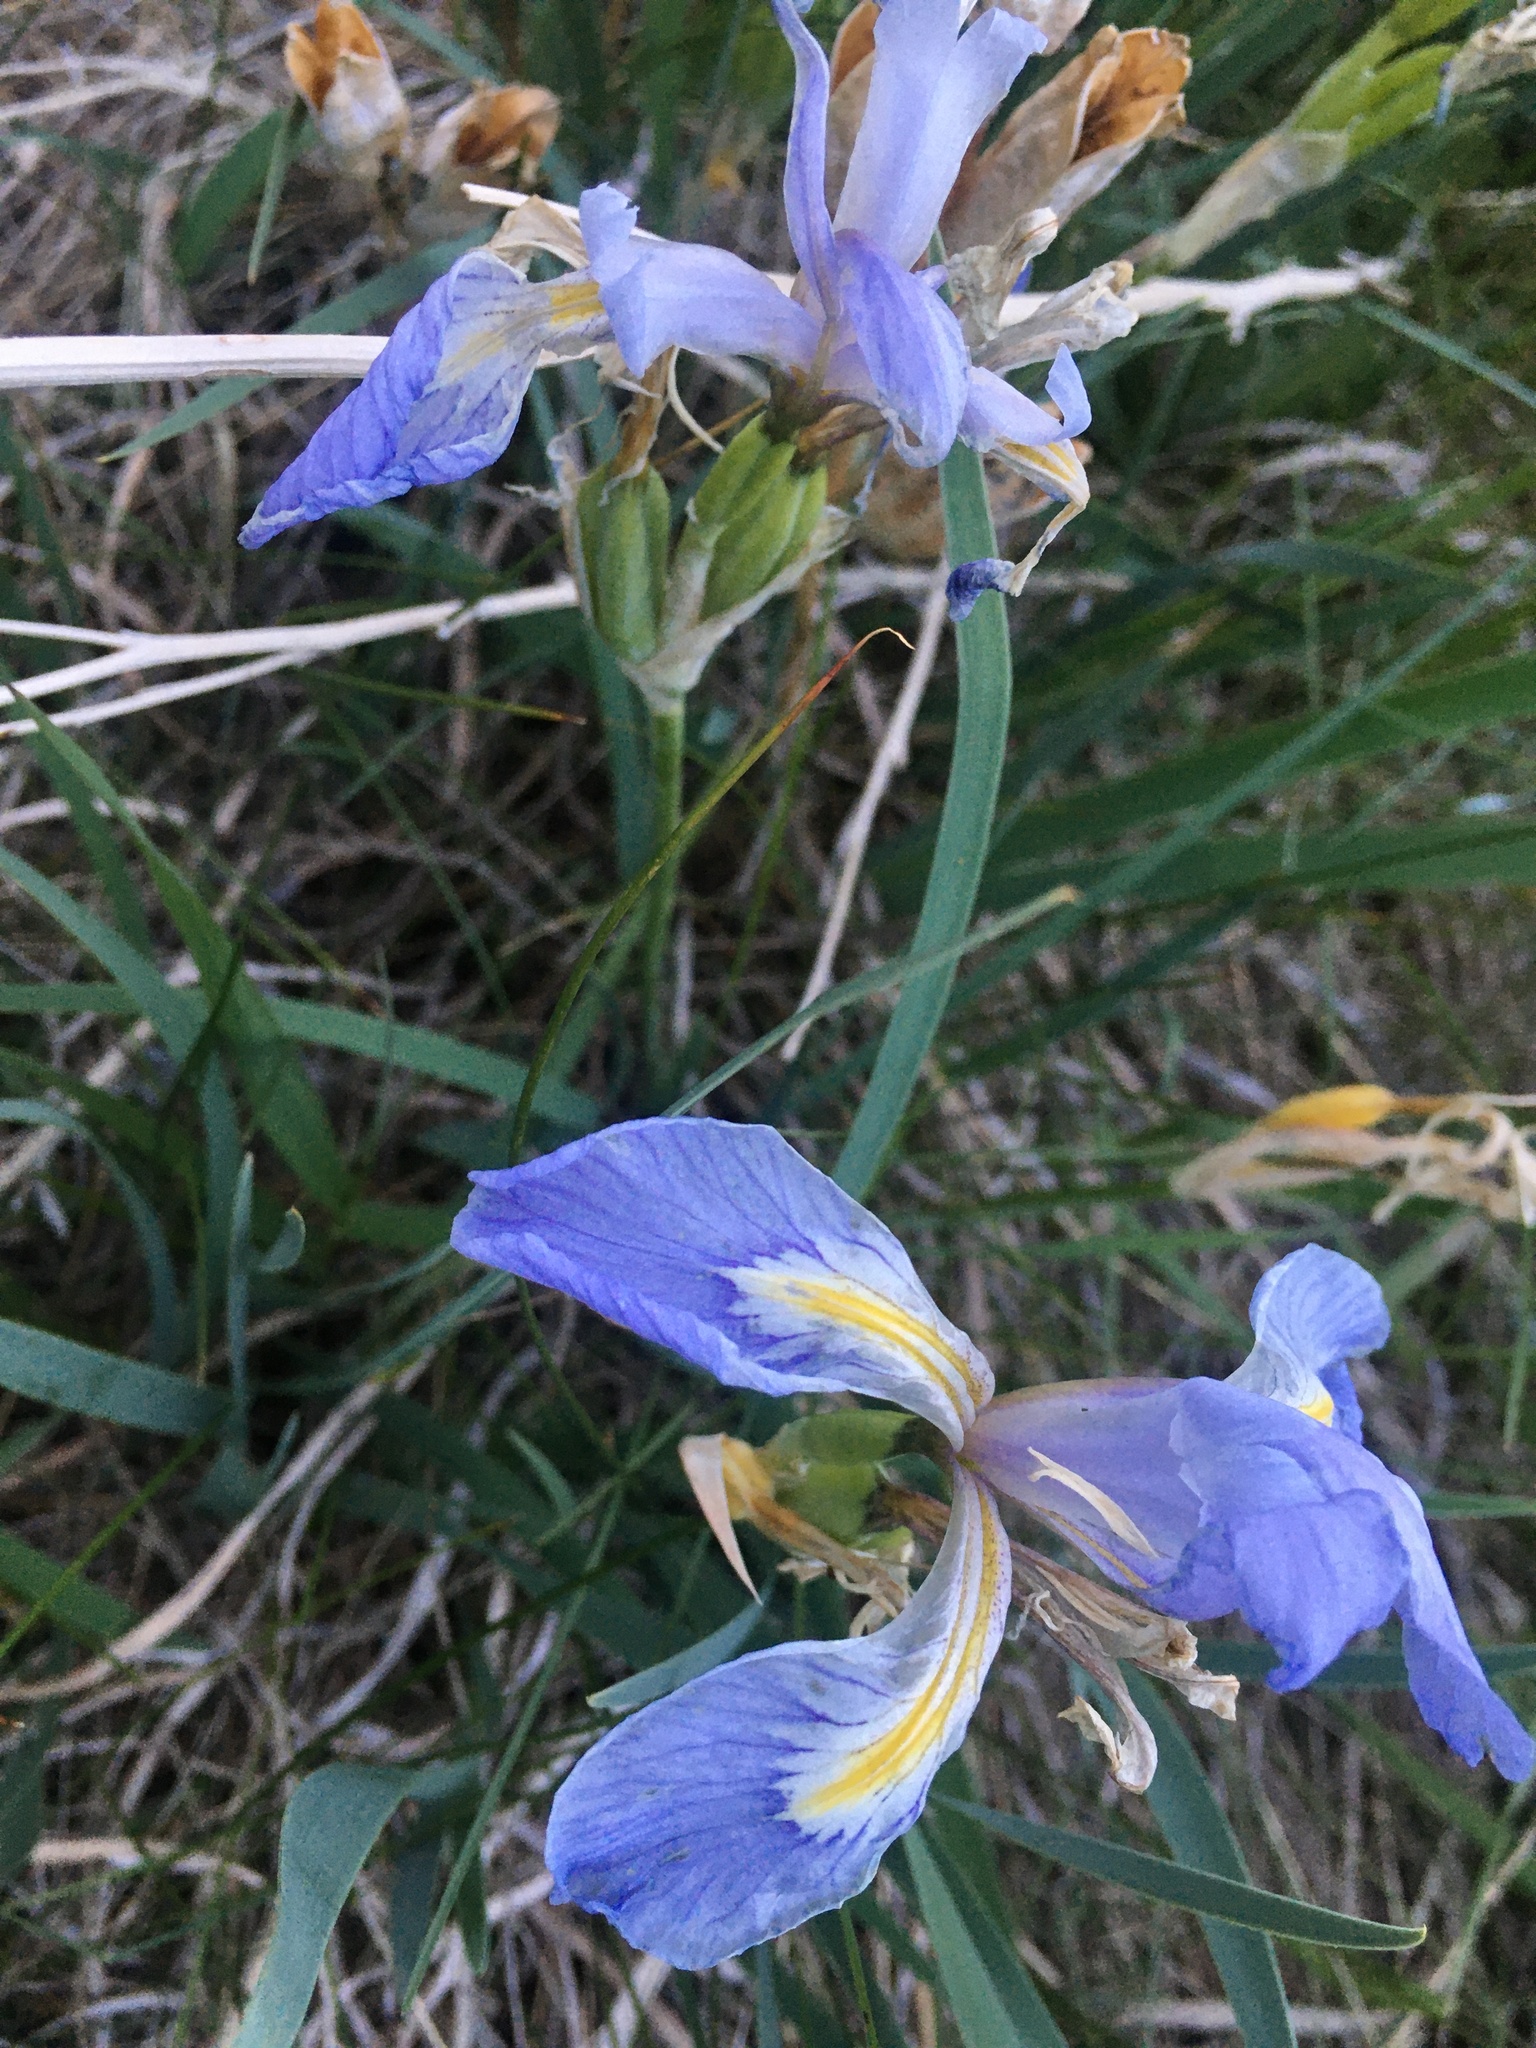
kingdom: Plantae
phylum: Tracheophyta
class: Liliopsida
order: Asparagales
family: Iridaceae
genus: Iris
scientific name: Iris missouriensis
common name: Rocky mountain iris
